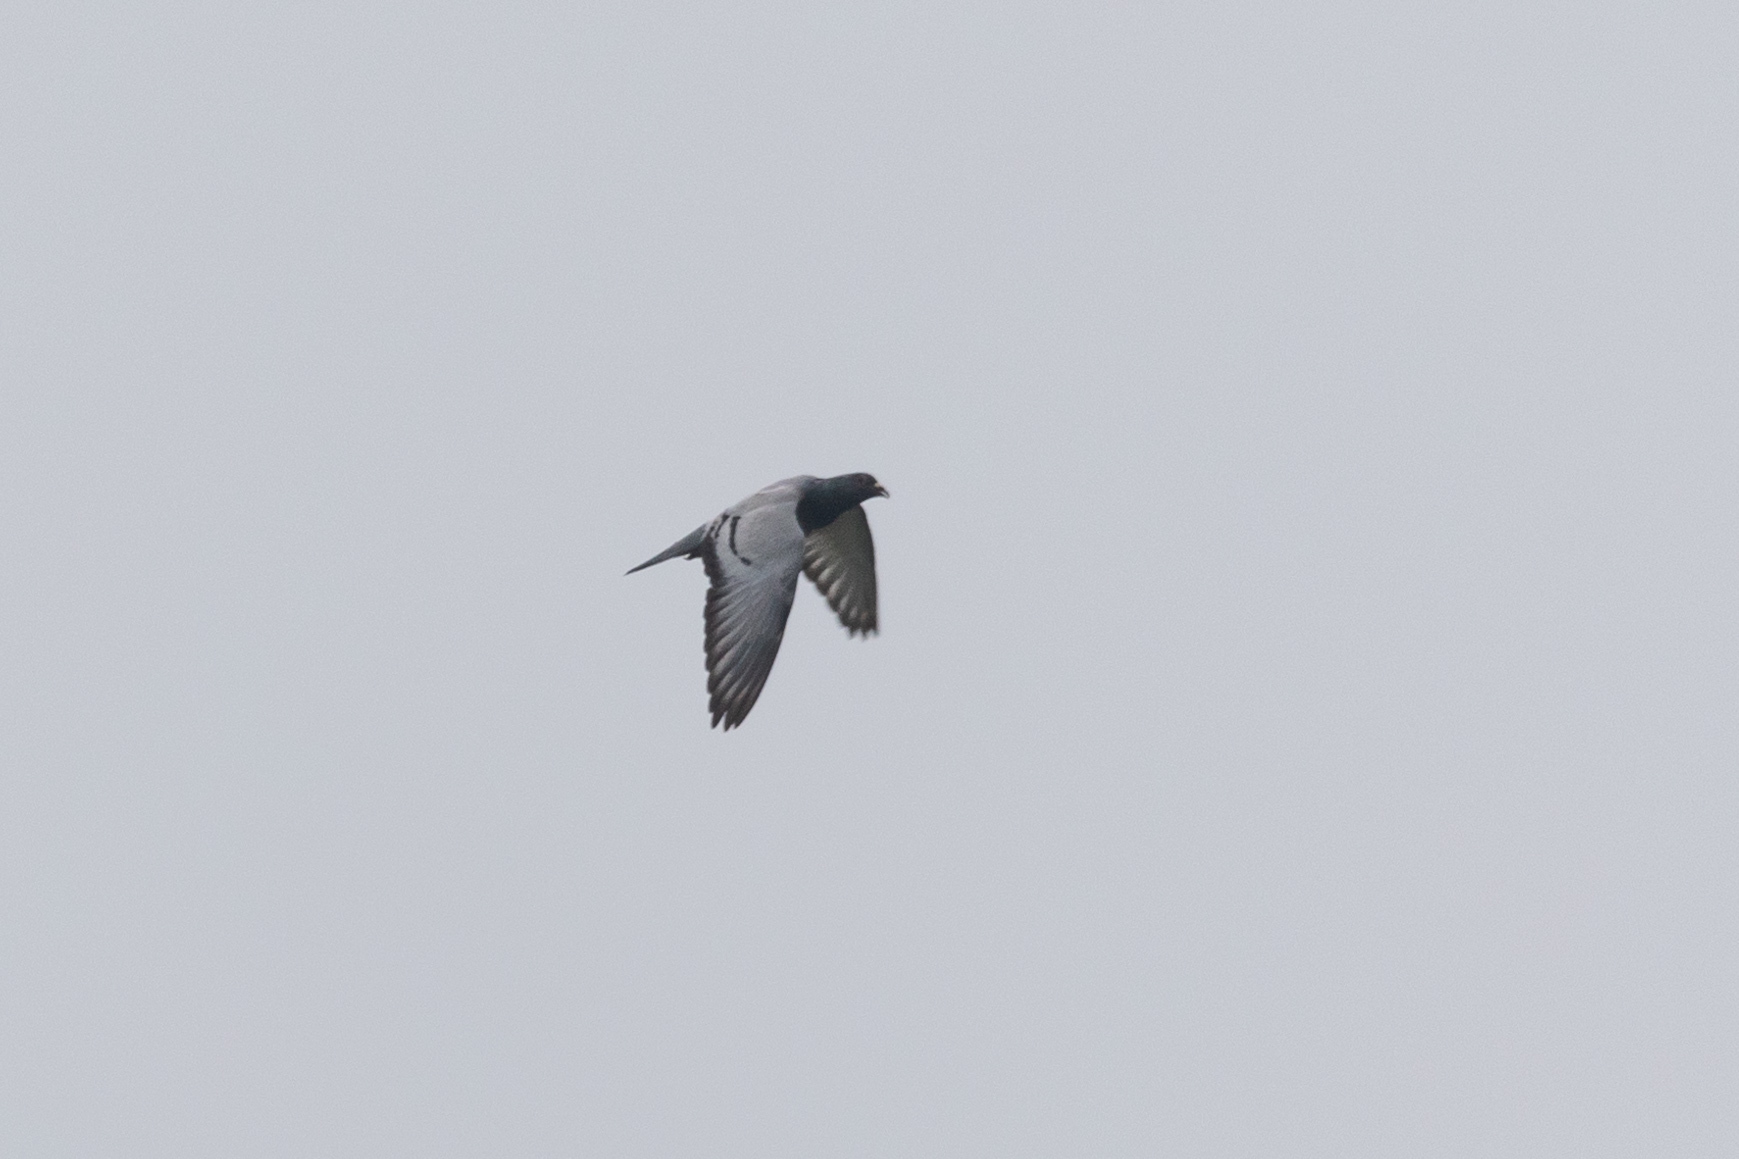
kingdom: Animalia
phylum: Chordata
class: Aves
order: Columbiformes
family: Columbidae
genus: Columba
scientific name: Columba livia
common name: Rock pigeon
